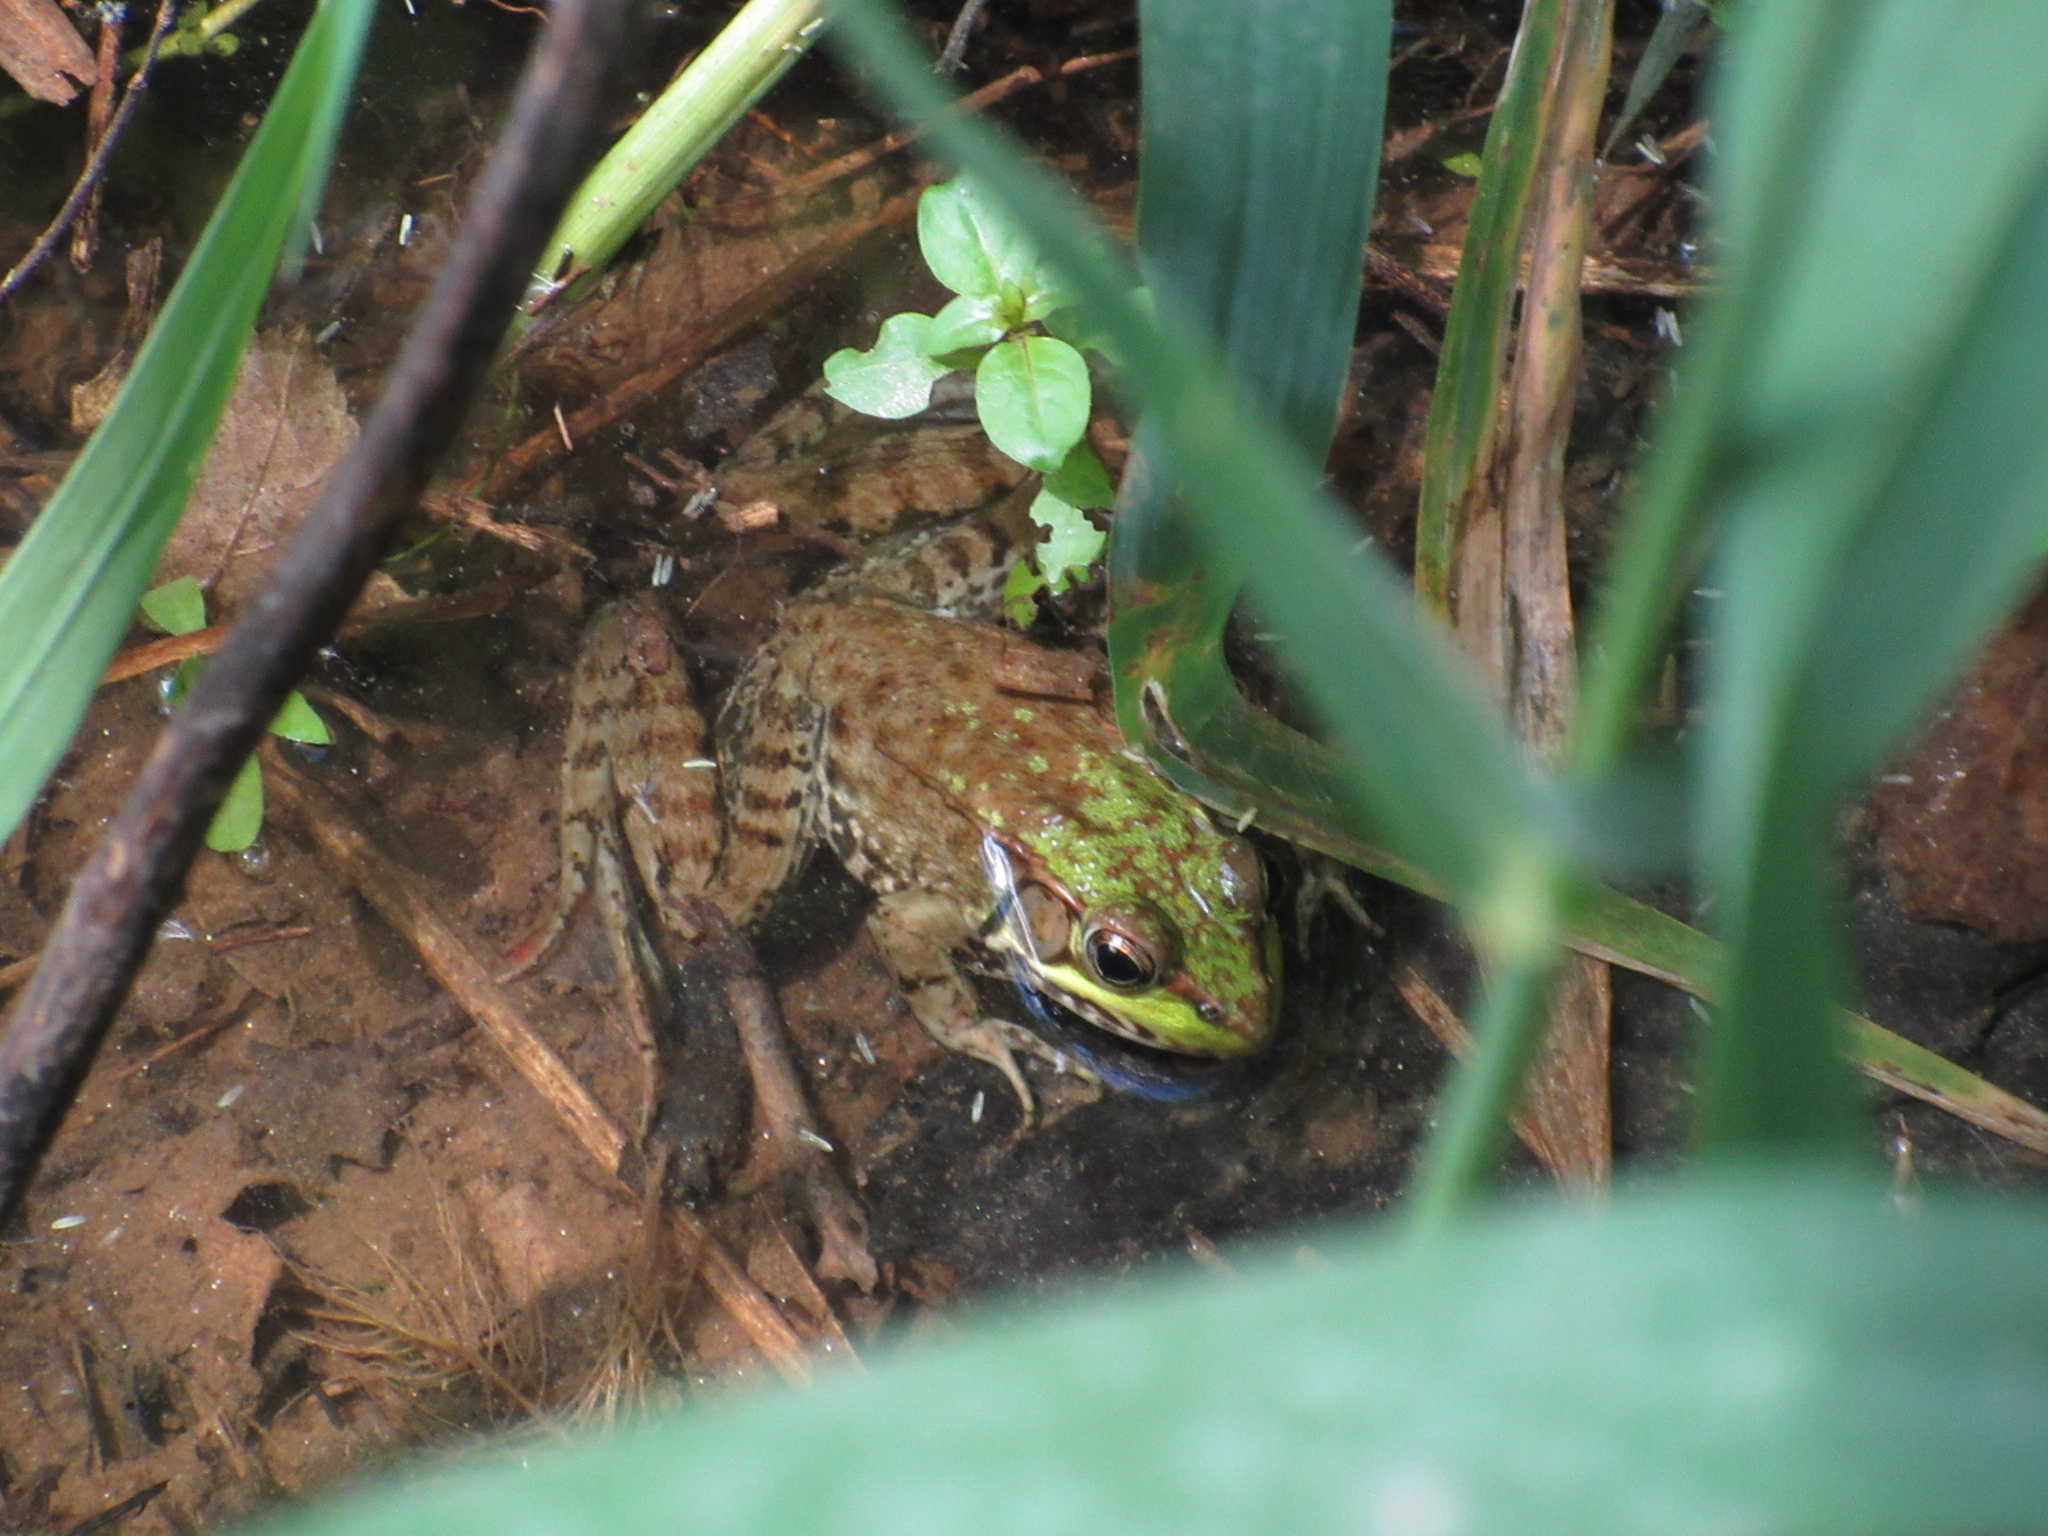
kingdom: Animalia
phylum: Chordata
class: Amphibia
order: Anura
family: Ranidae
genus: Lithobates
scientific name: Lithobates clamitans
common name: Green frog
